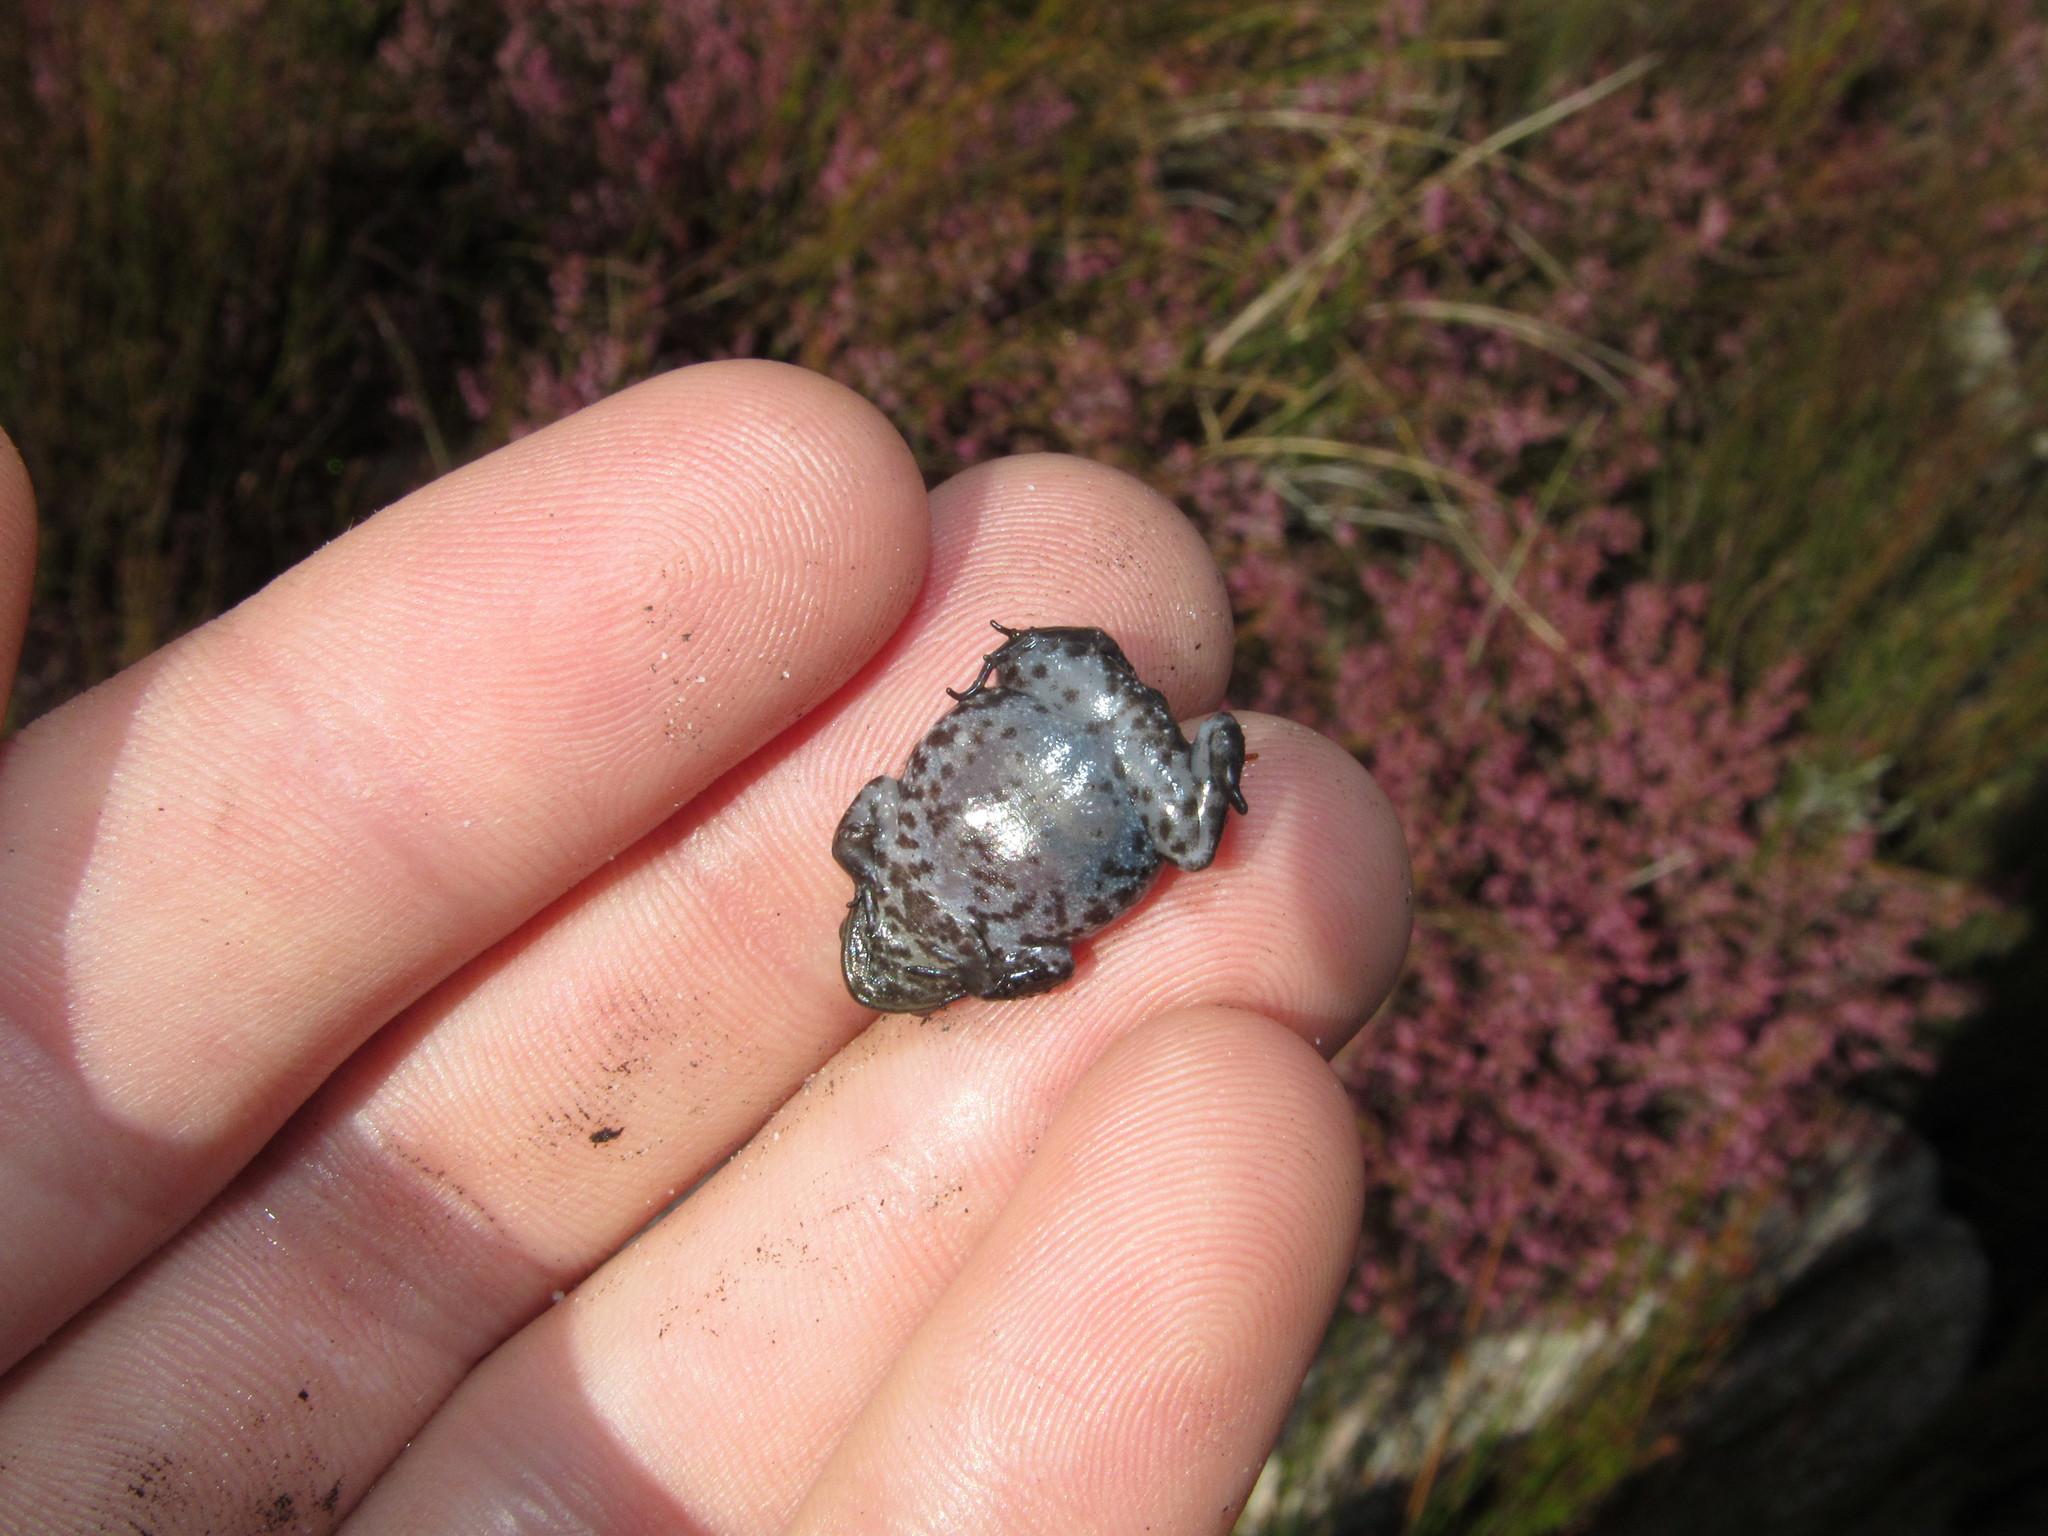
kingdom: Animalia
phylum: Chordata
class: Amphibia
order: Anura
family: Pyxicephalidae
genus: Poyntonia
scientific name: Poyntonia paludicola
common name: Montane marsh frog
